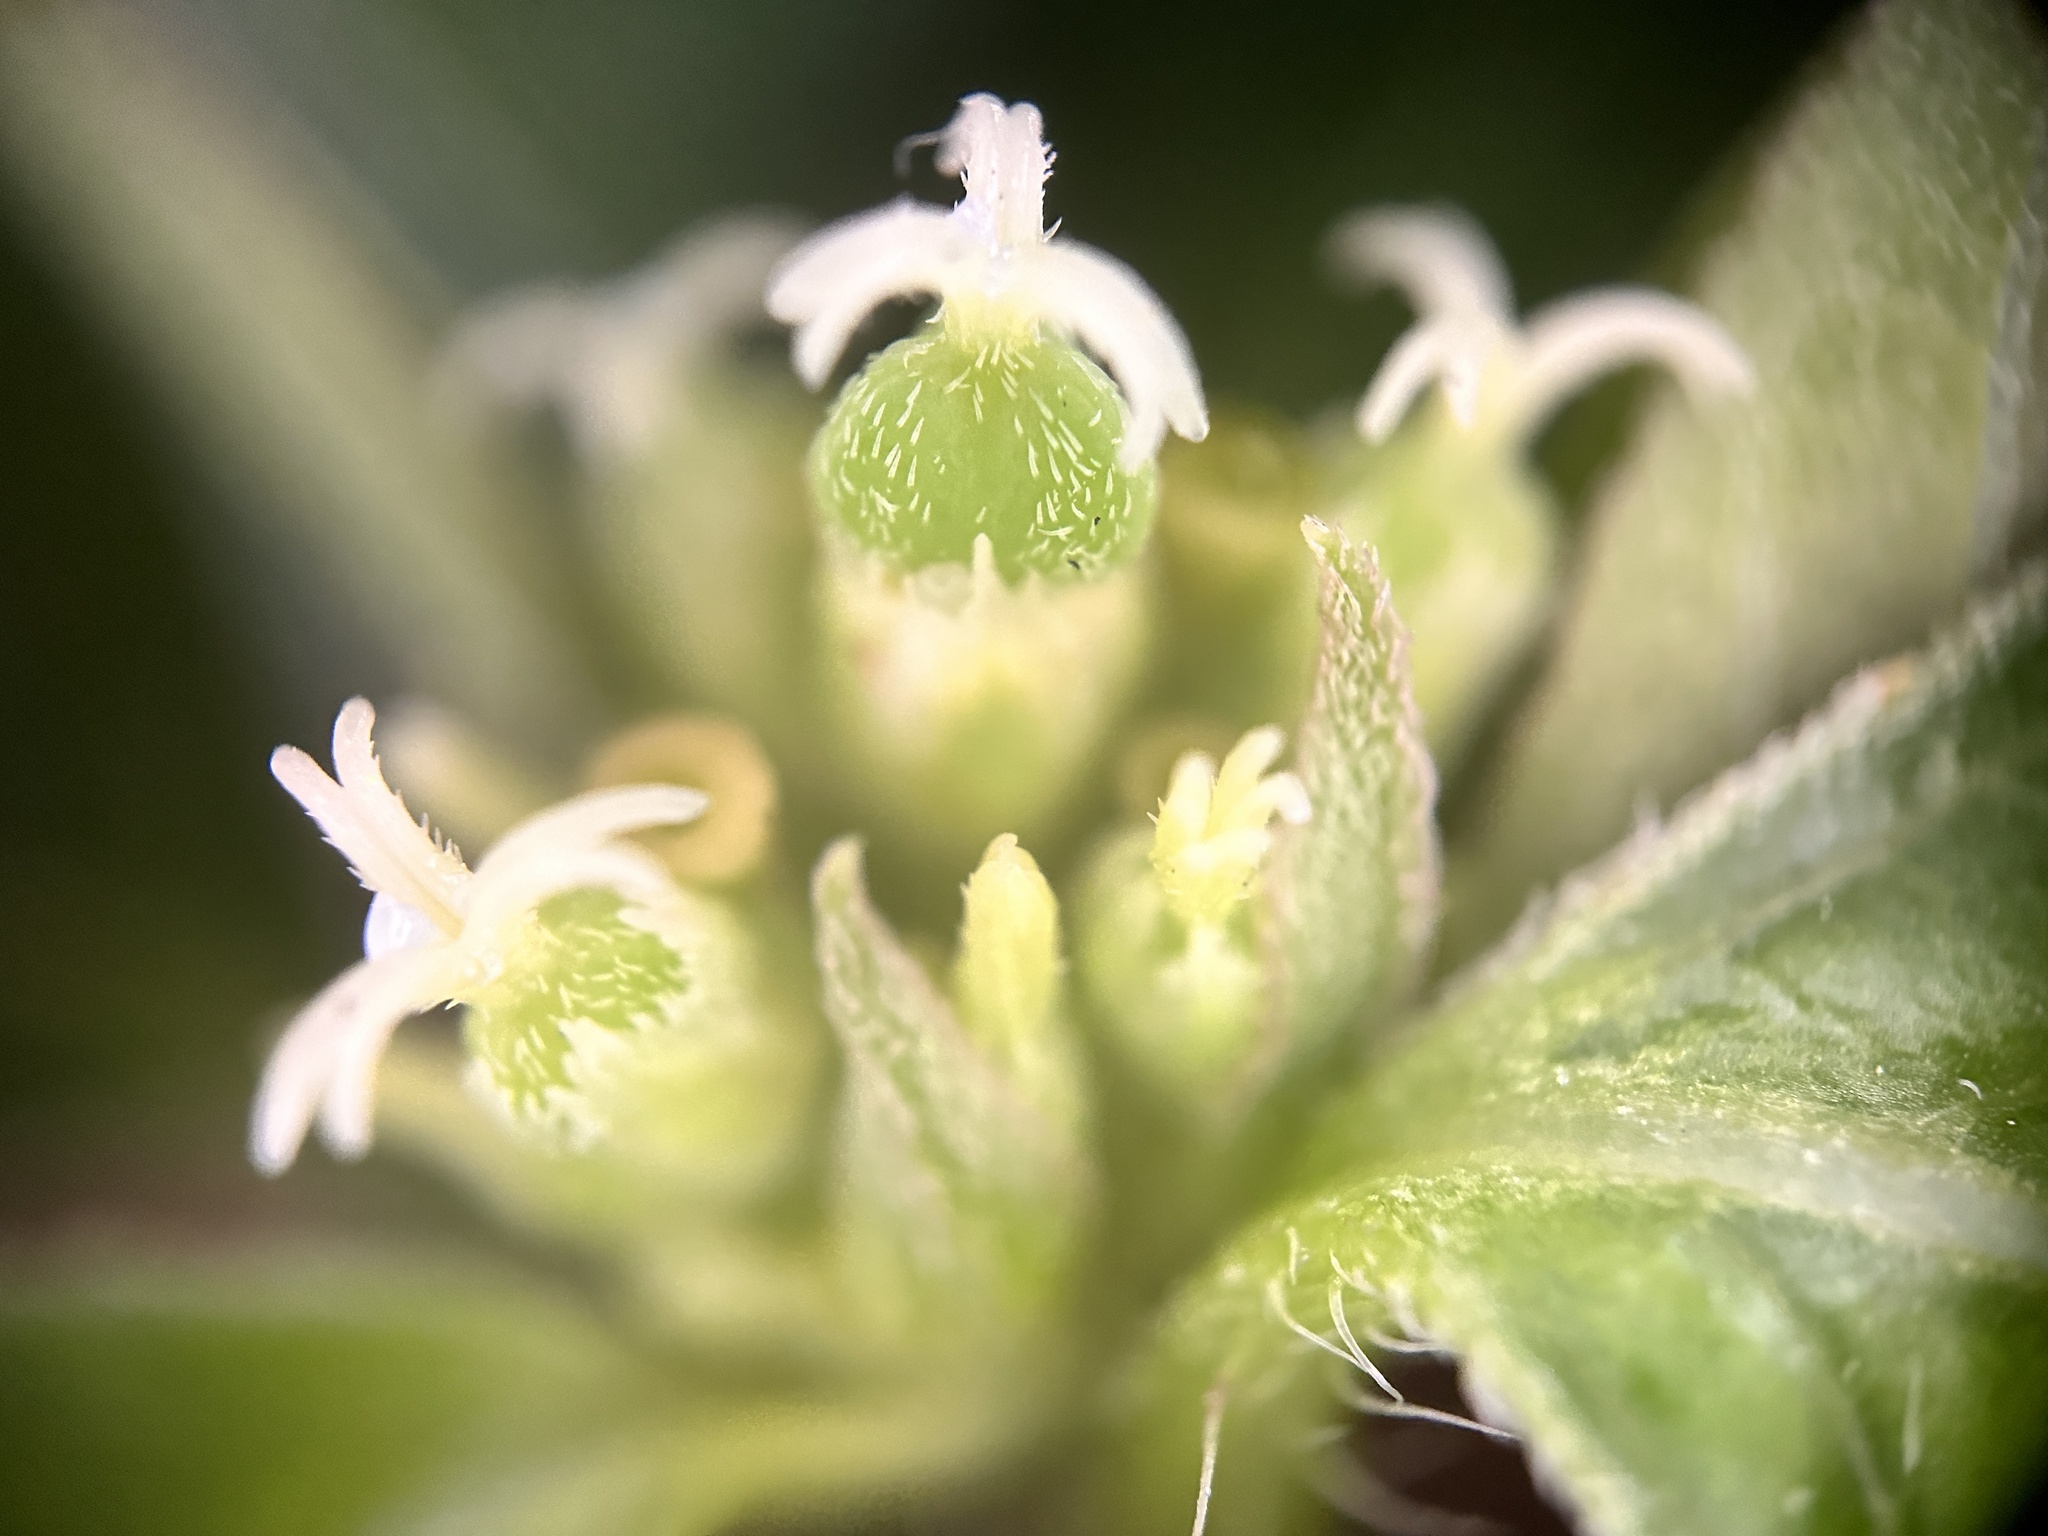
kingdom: Plantae
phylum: Tracheophyta
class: Magnoliopsida
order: Malpighiales
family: Euphorbiaceae
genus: Euphorbia
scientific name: Euphorbia heterophylla
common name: Mexican fireplant
